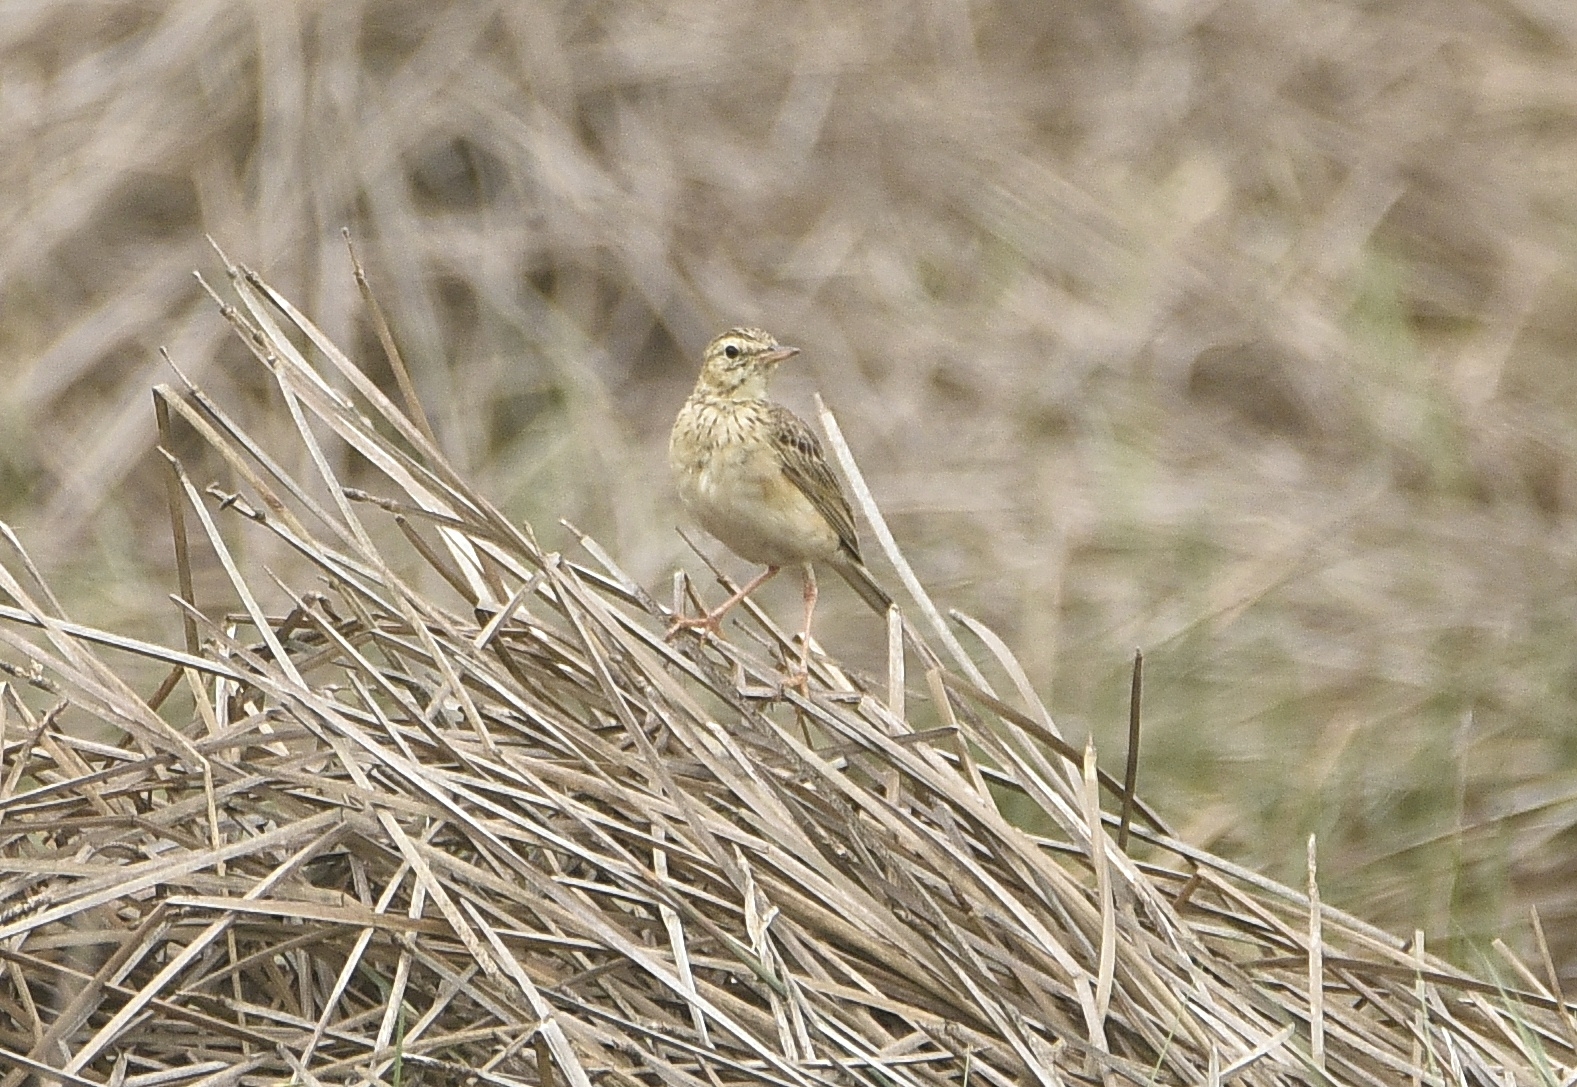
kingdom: Animalia
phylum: Chordata
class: Aves
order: Passeriformes
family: Motacillidae
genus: Anthus
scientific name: Anthus rufulus
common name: Paddyfield pipit
